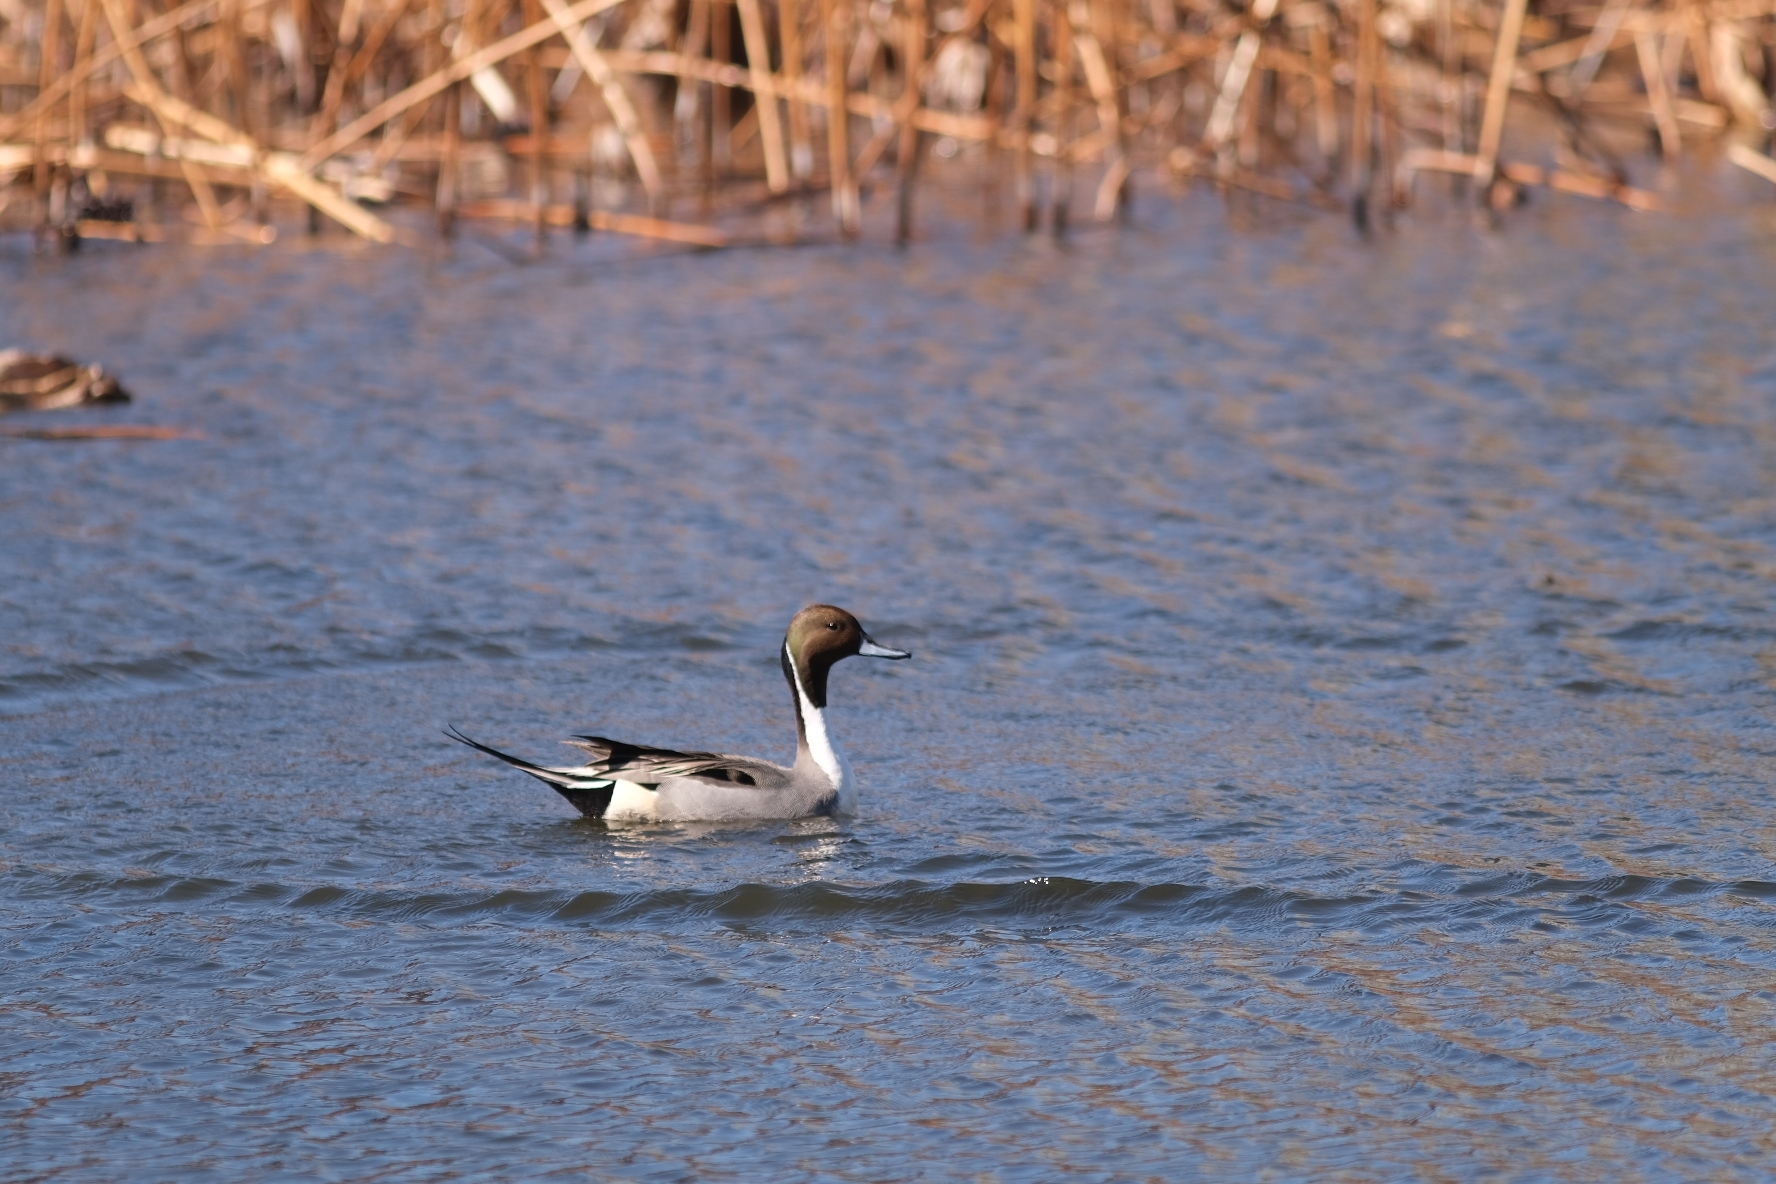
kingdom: Animalia
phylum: Chordata
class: Aves
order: Anseriformes
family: Anatidae
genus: Anas
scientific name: Anas acuta
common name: Northern pintail
